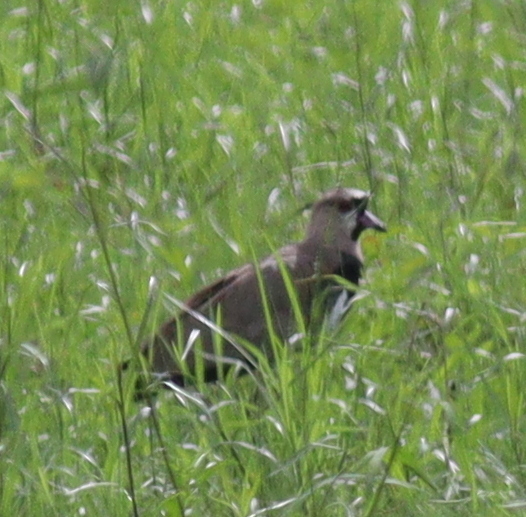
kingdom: Animalia
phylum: Chordata
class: Aves
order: Charadriiformes
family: Charadriidae
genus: Vanellus
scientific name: Vanellus chilensis
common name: Southern lapwing
